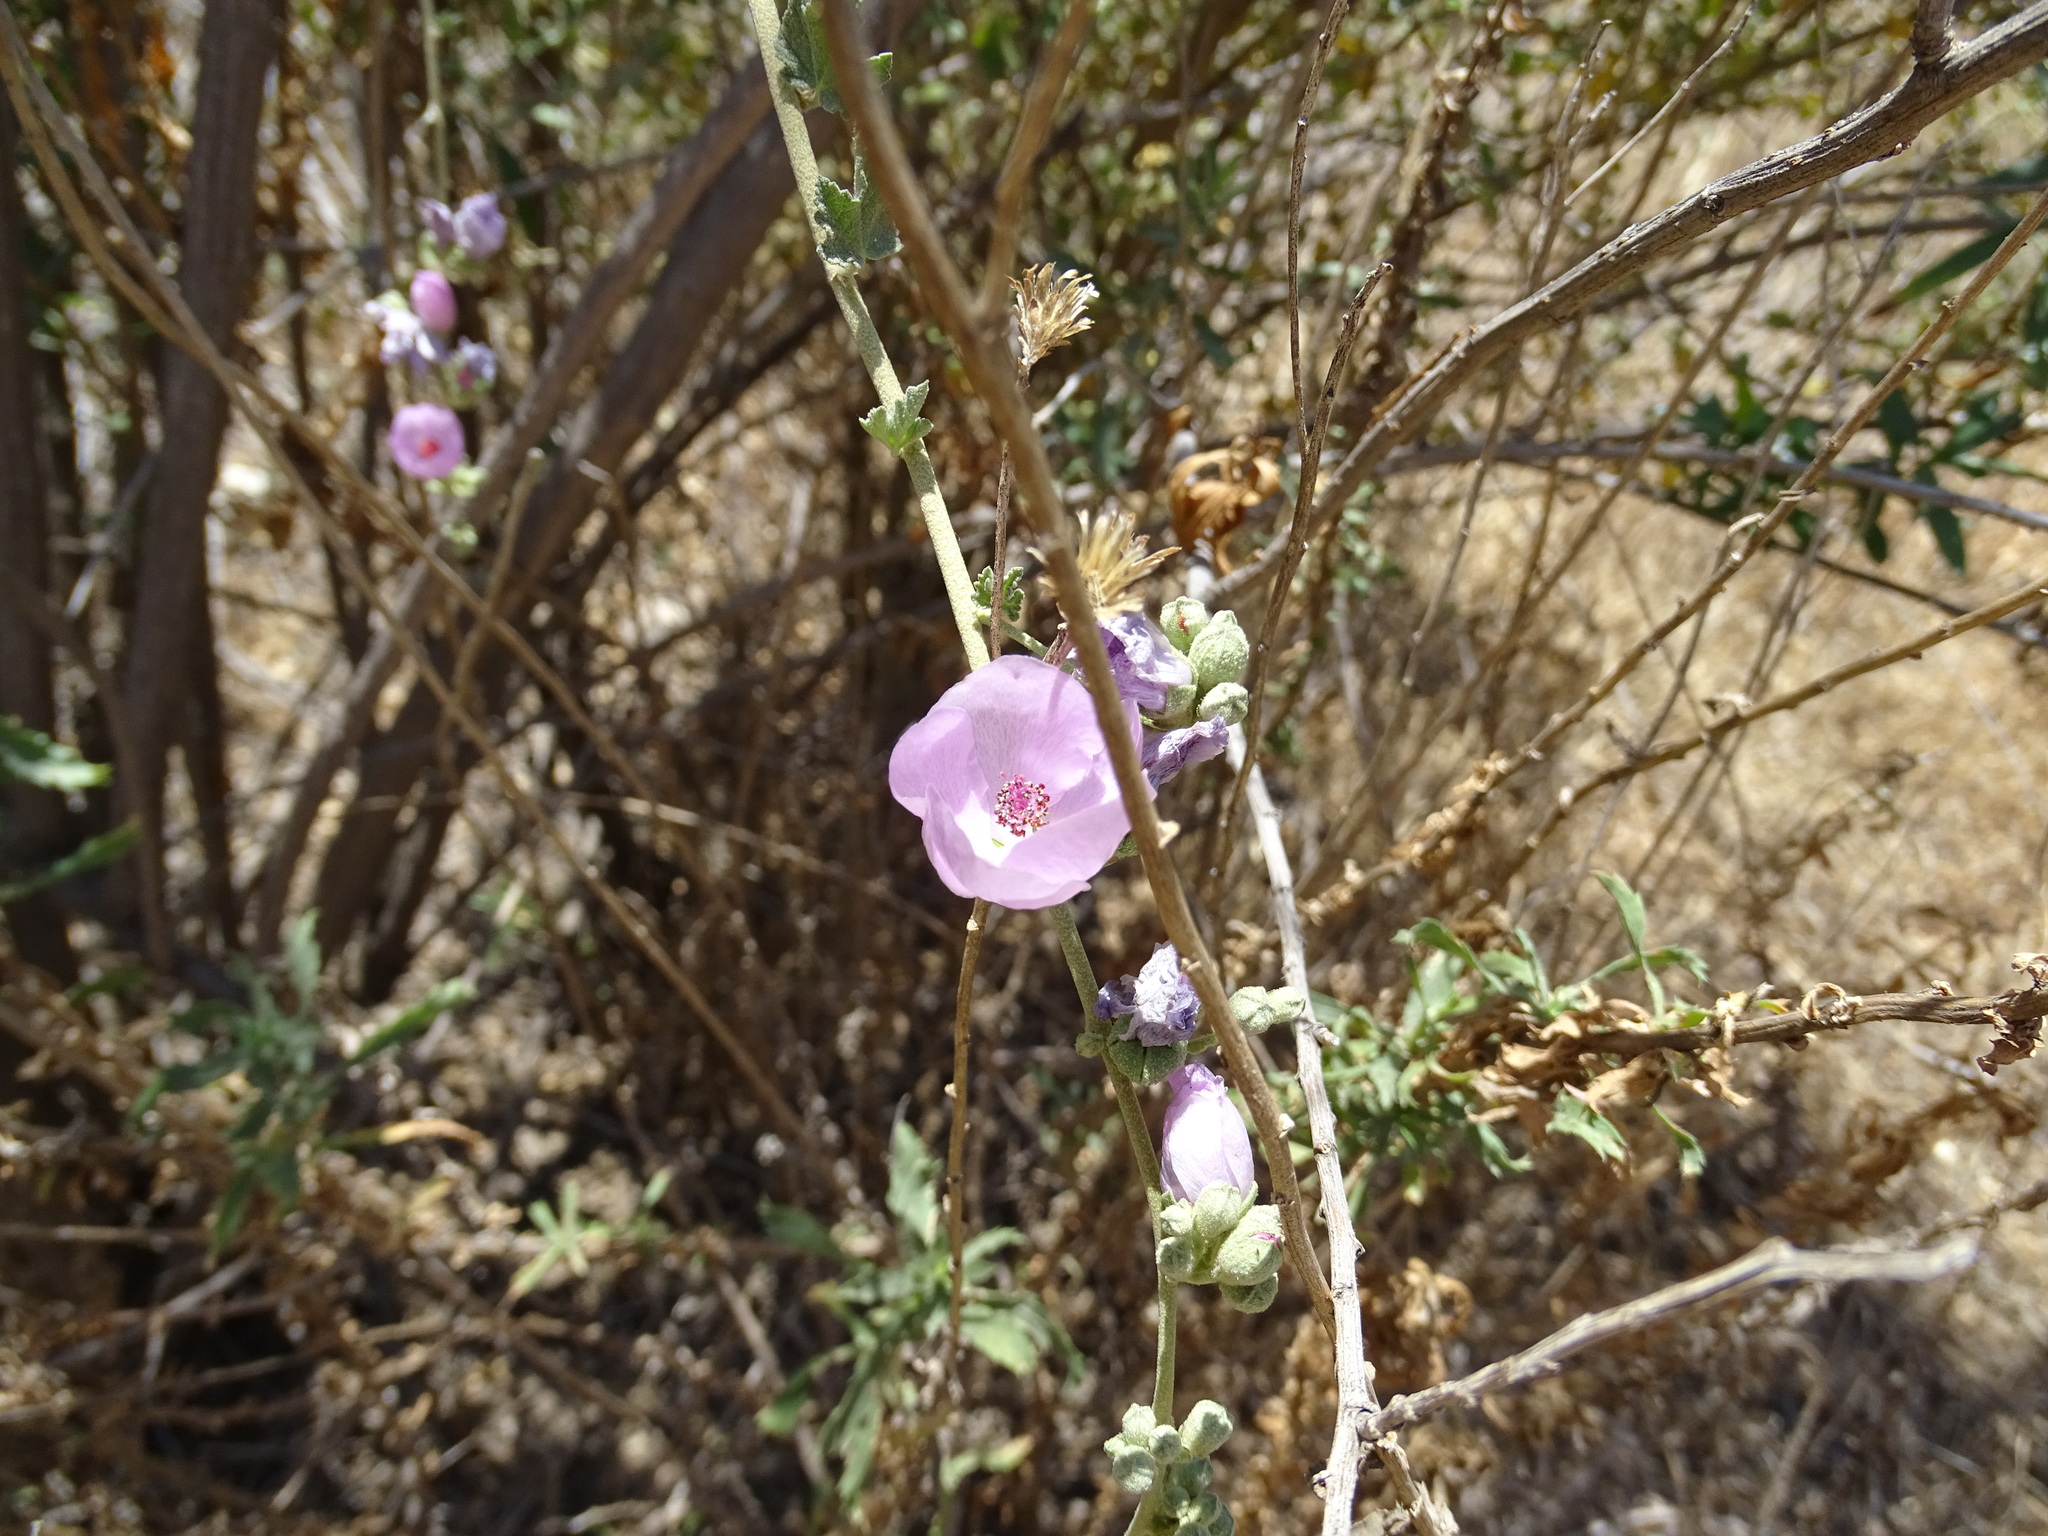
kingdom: Plantae
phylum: Tracheophyta
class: Magnoliopsida
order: Malvales
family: Malvaceae
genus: Malacothamnus
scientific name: Malacothamnus fasciculatus
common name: Sant cruz island bush-mallow
